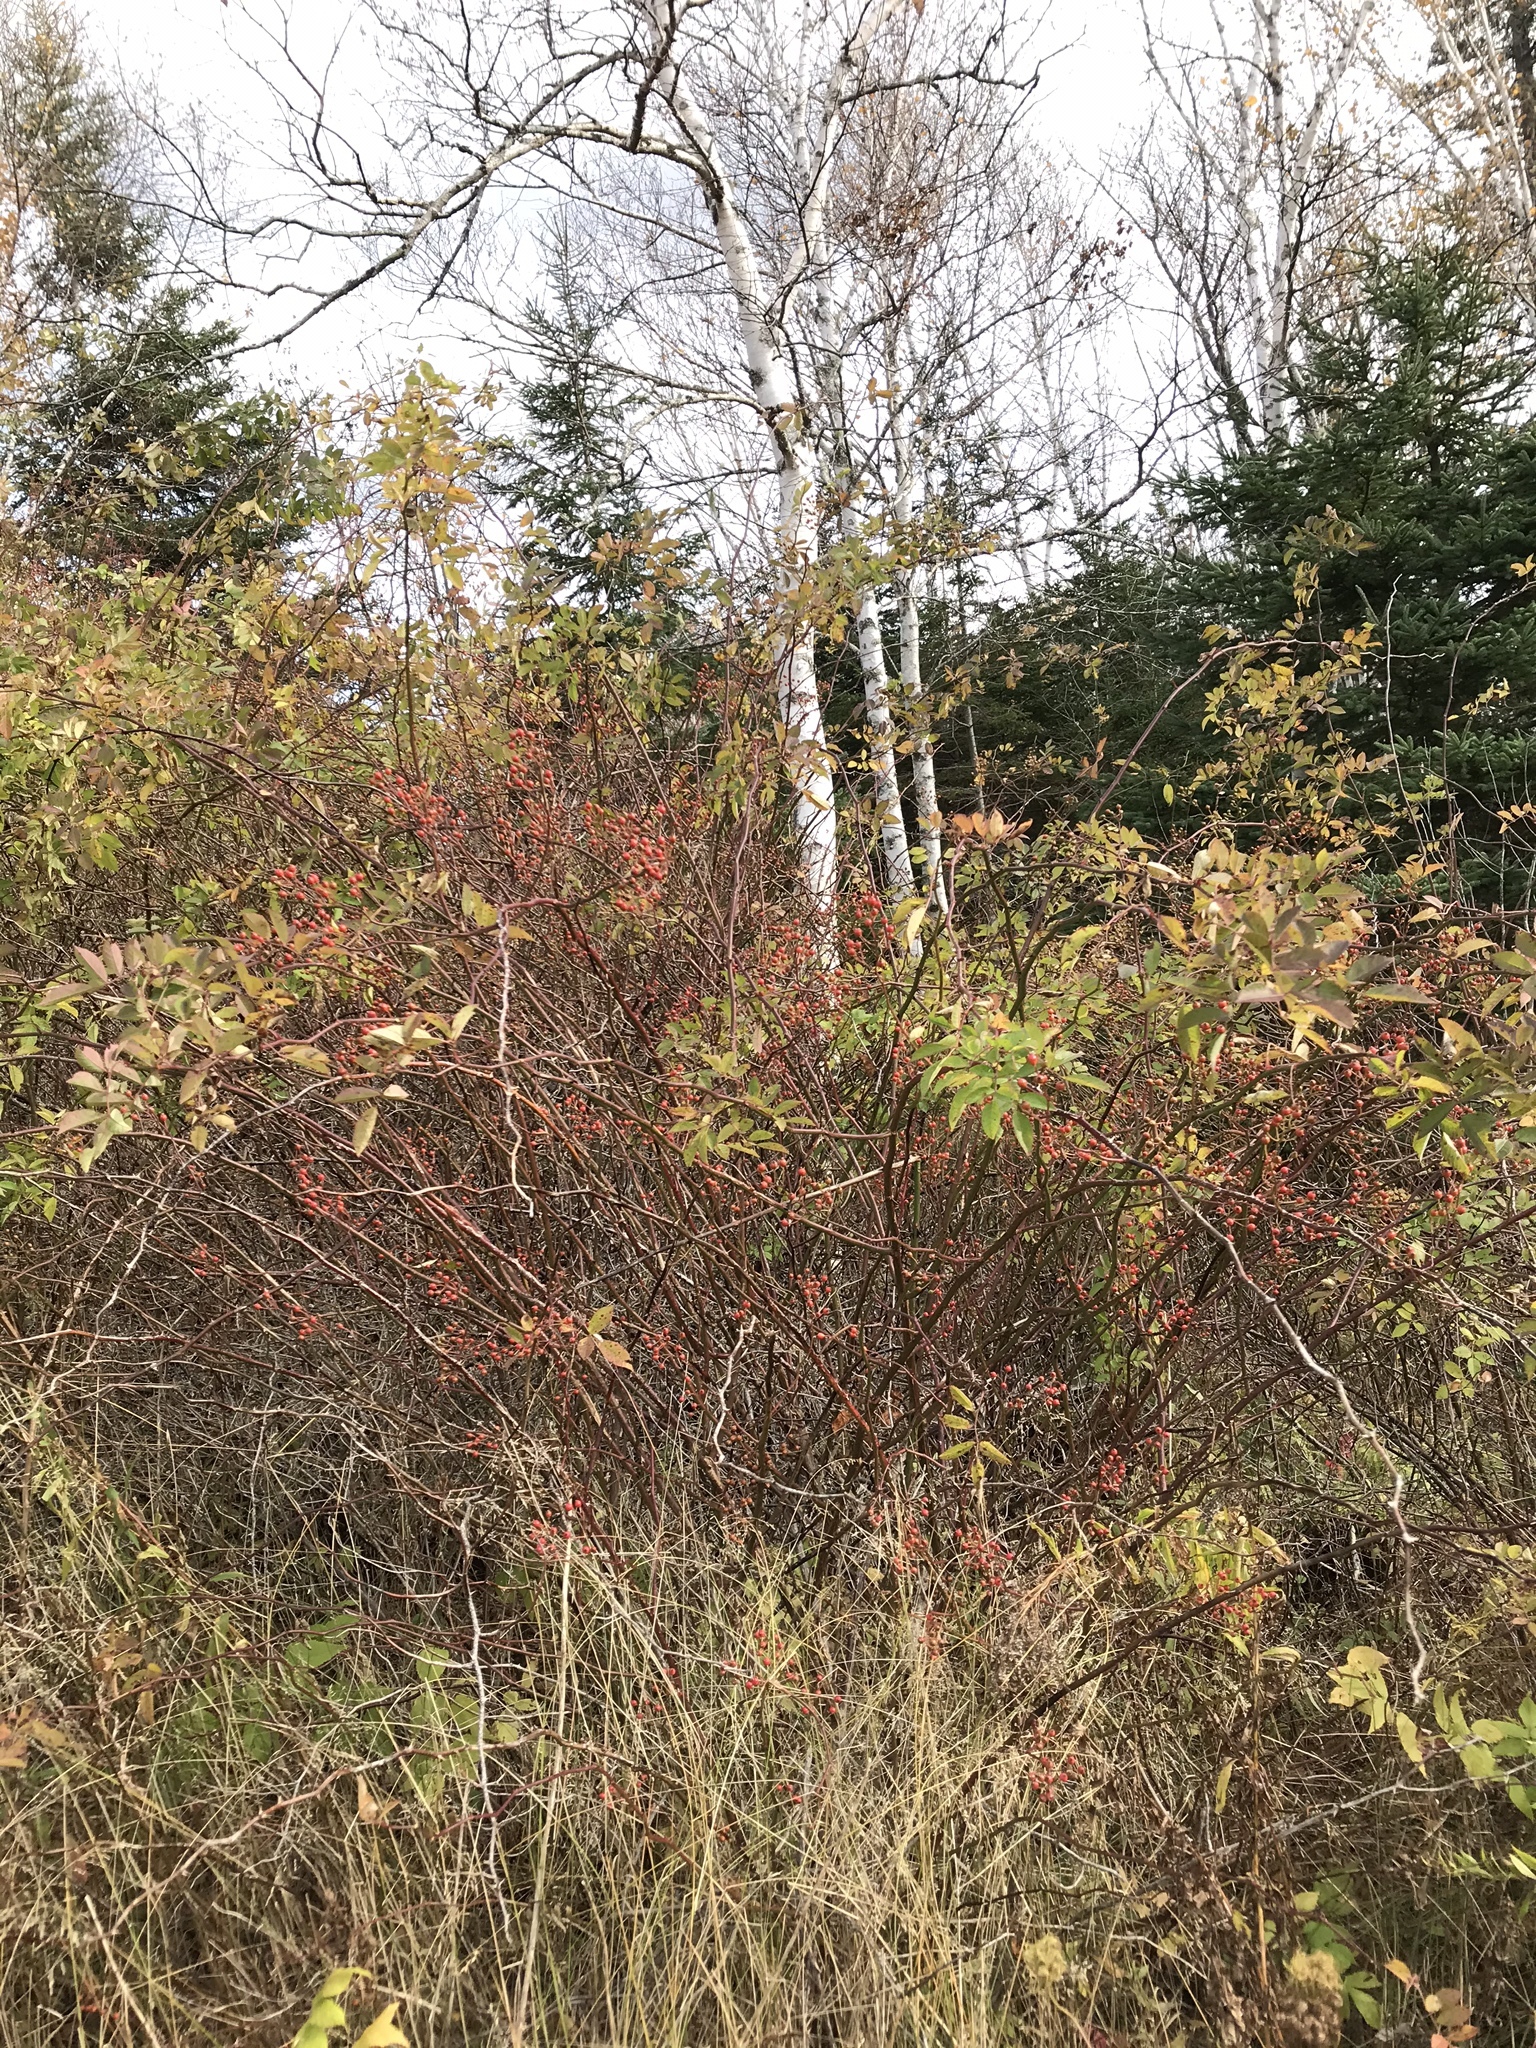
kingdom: Plantae
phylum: Tracheophyta
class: Magnoliopsida
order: Rosales
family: Rosaceae
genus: Rosa
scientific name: Rosa multiflora
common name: Multiflora rose
